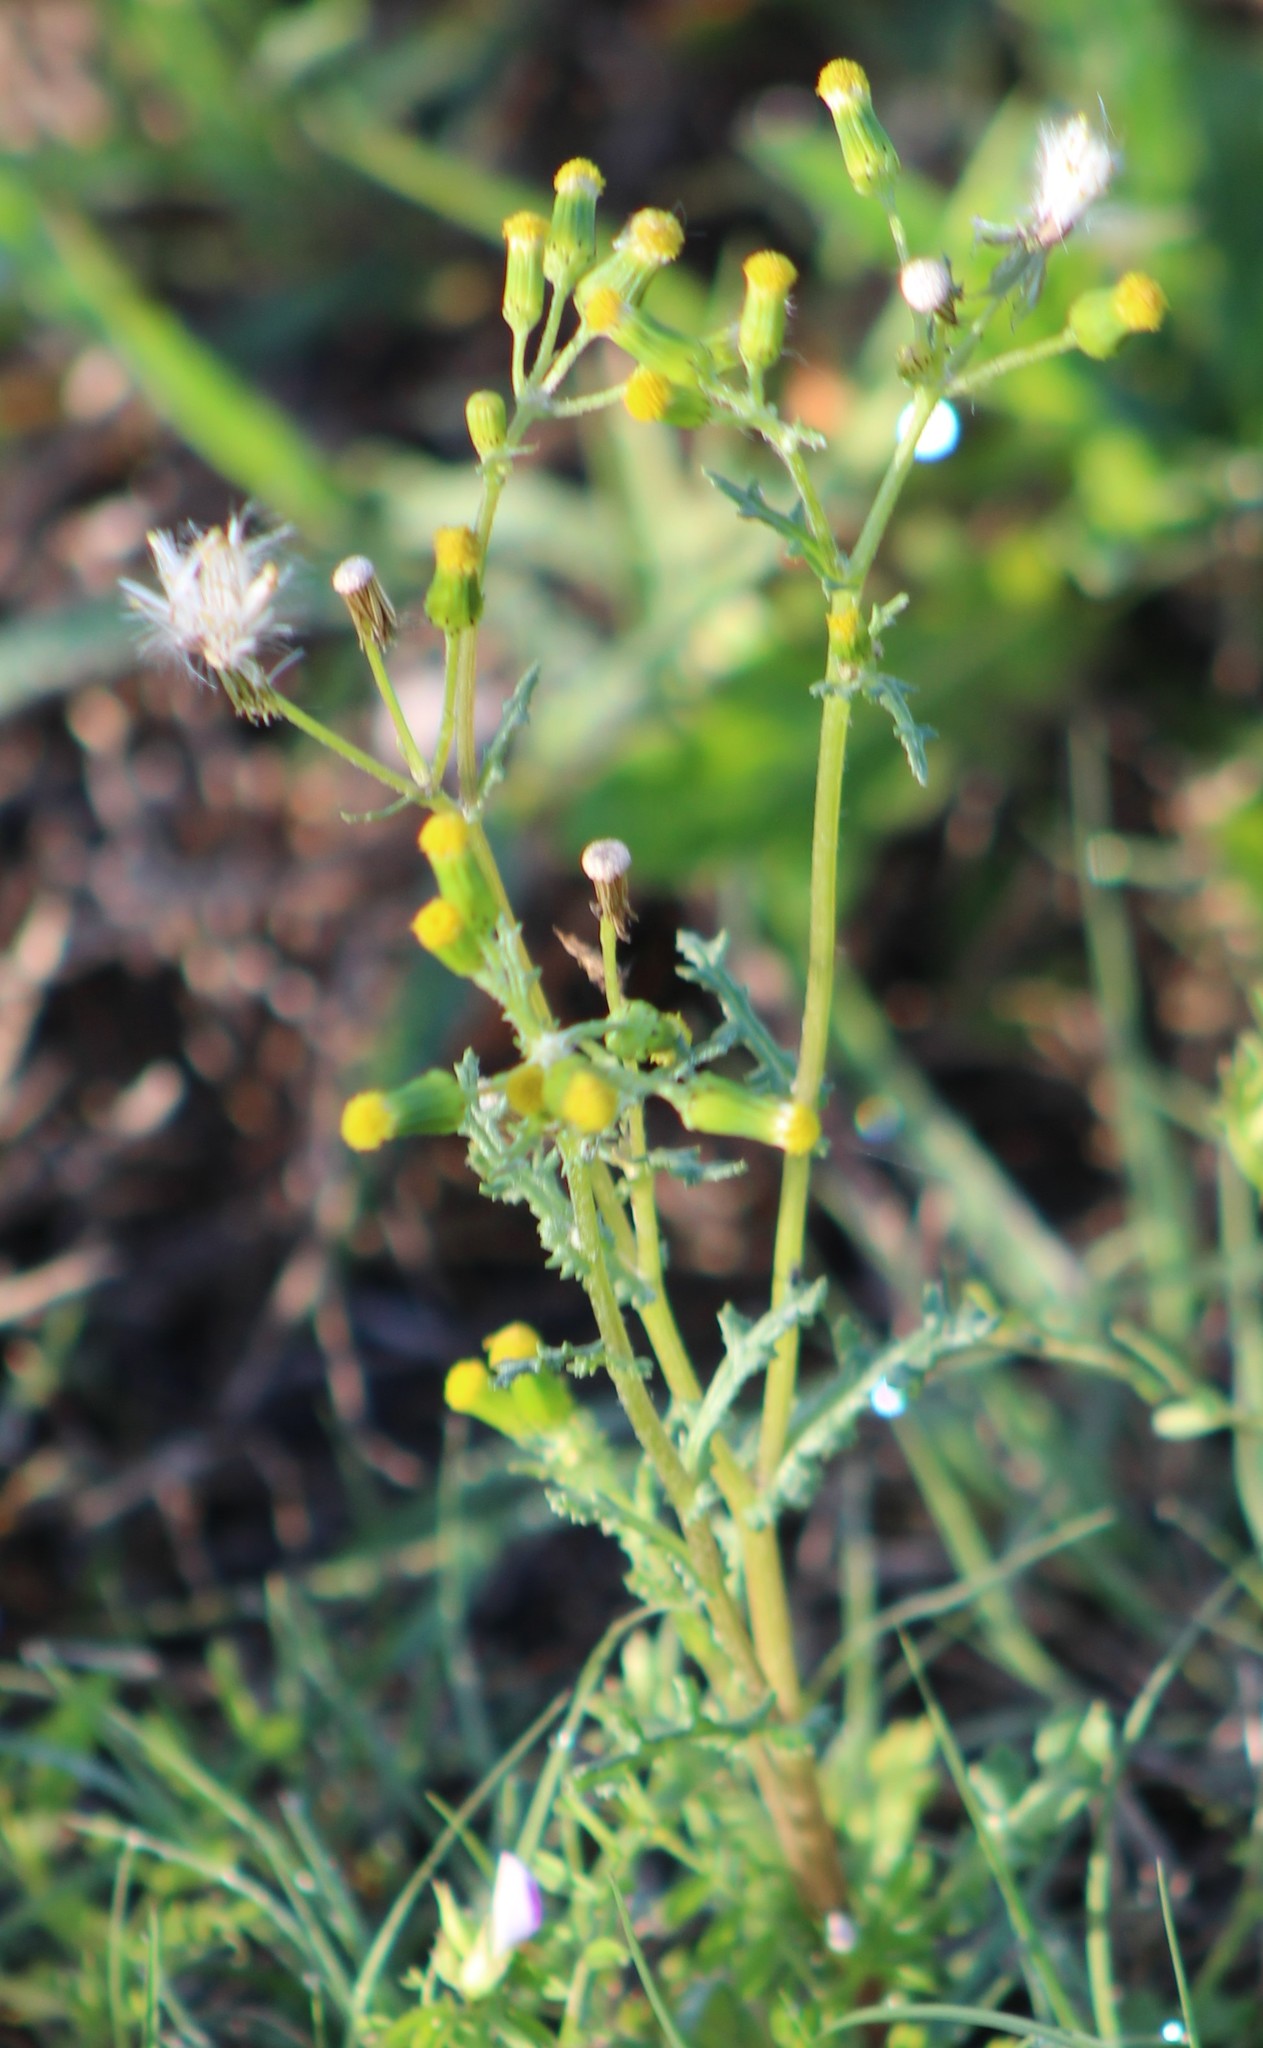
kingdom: Plantae
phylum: Tracheophyta
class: Magnoliopsida
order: Asterales
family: Asteraceae
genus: Senecio
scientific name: Senecio vulgaris
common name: Old-man-in-the-spring
